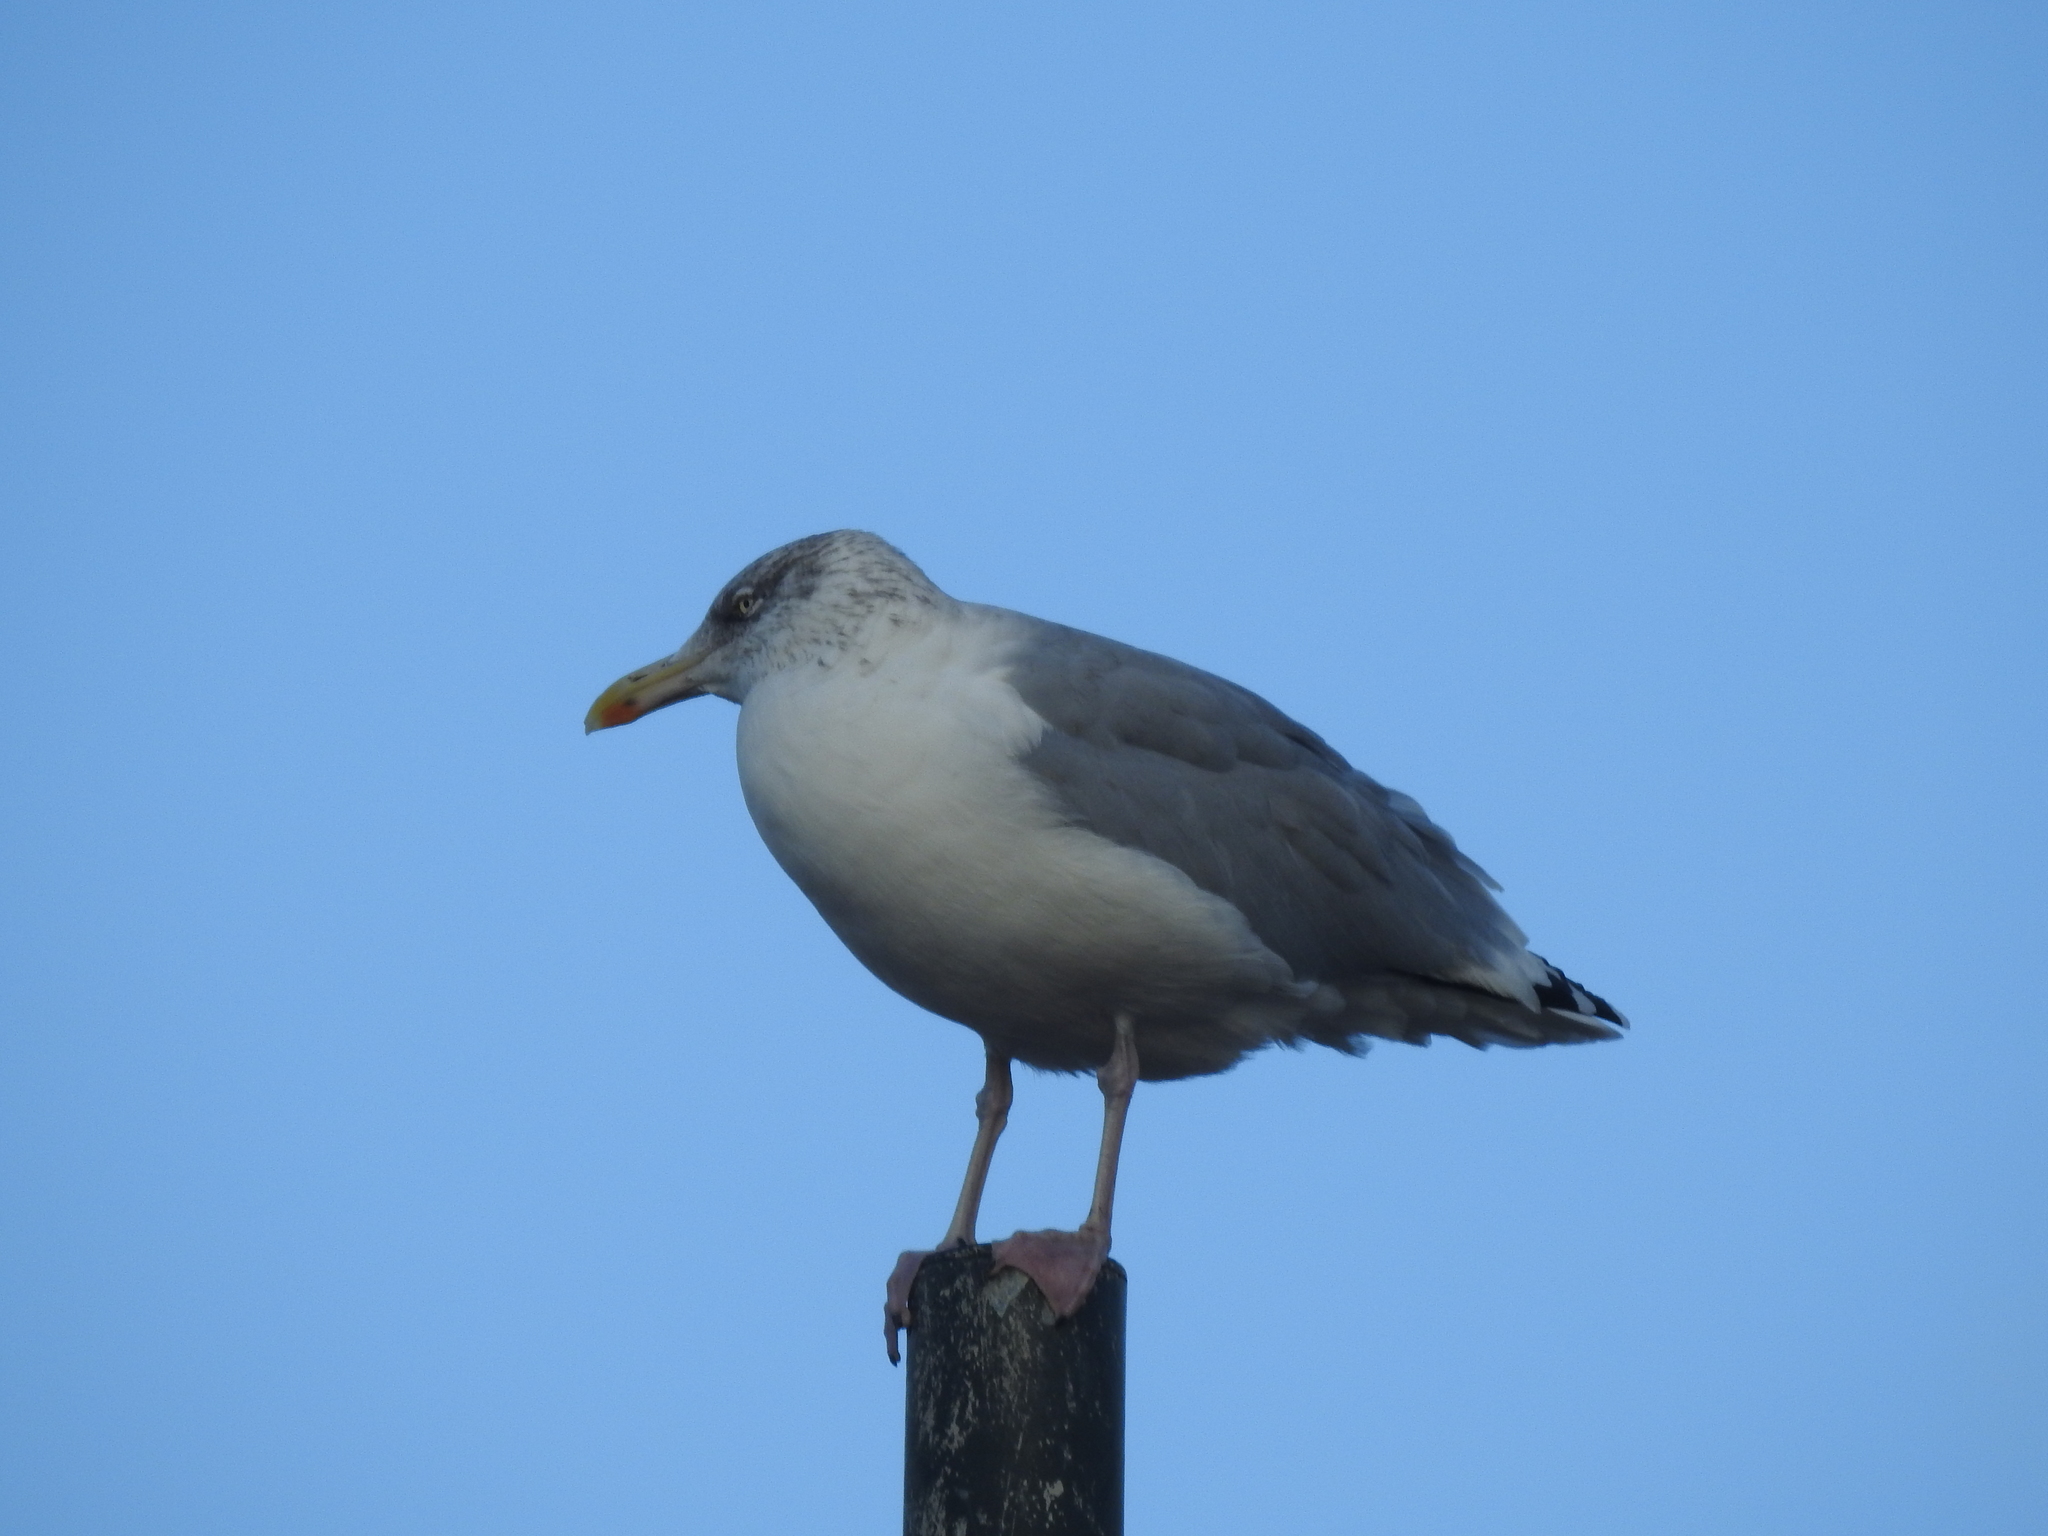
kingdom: Animalia
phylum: Chordata
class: Aves
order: Charadriiformes
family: Laridae
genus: Larus
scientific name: Larus argentatus
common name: Herring gull
